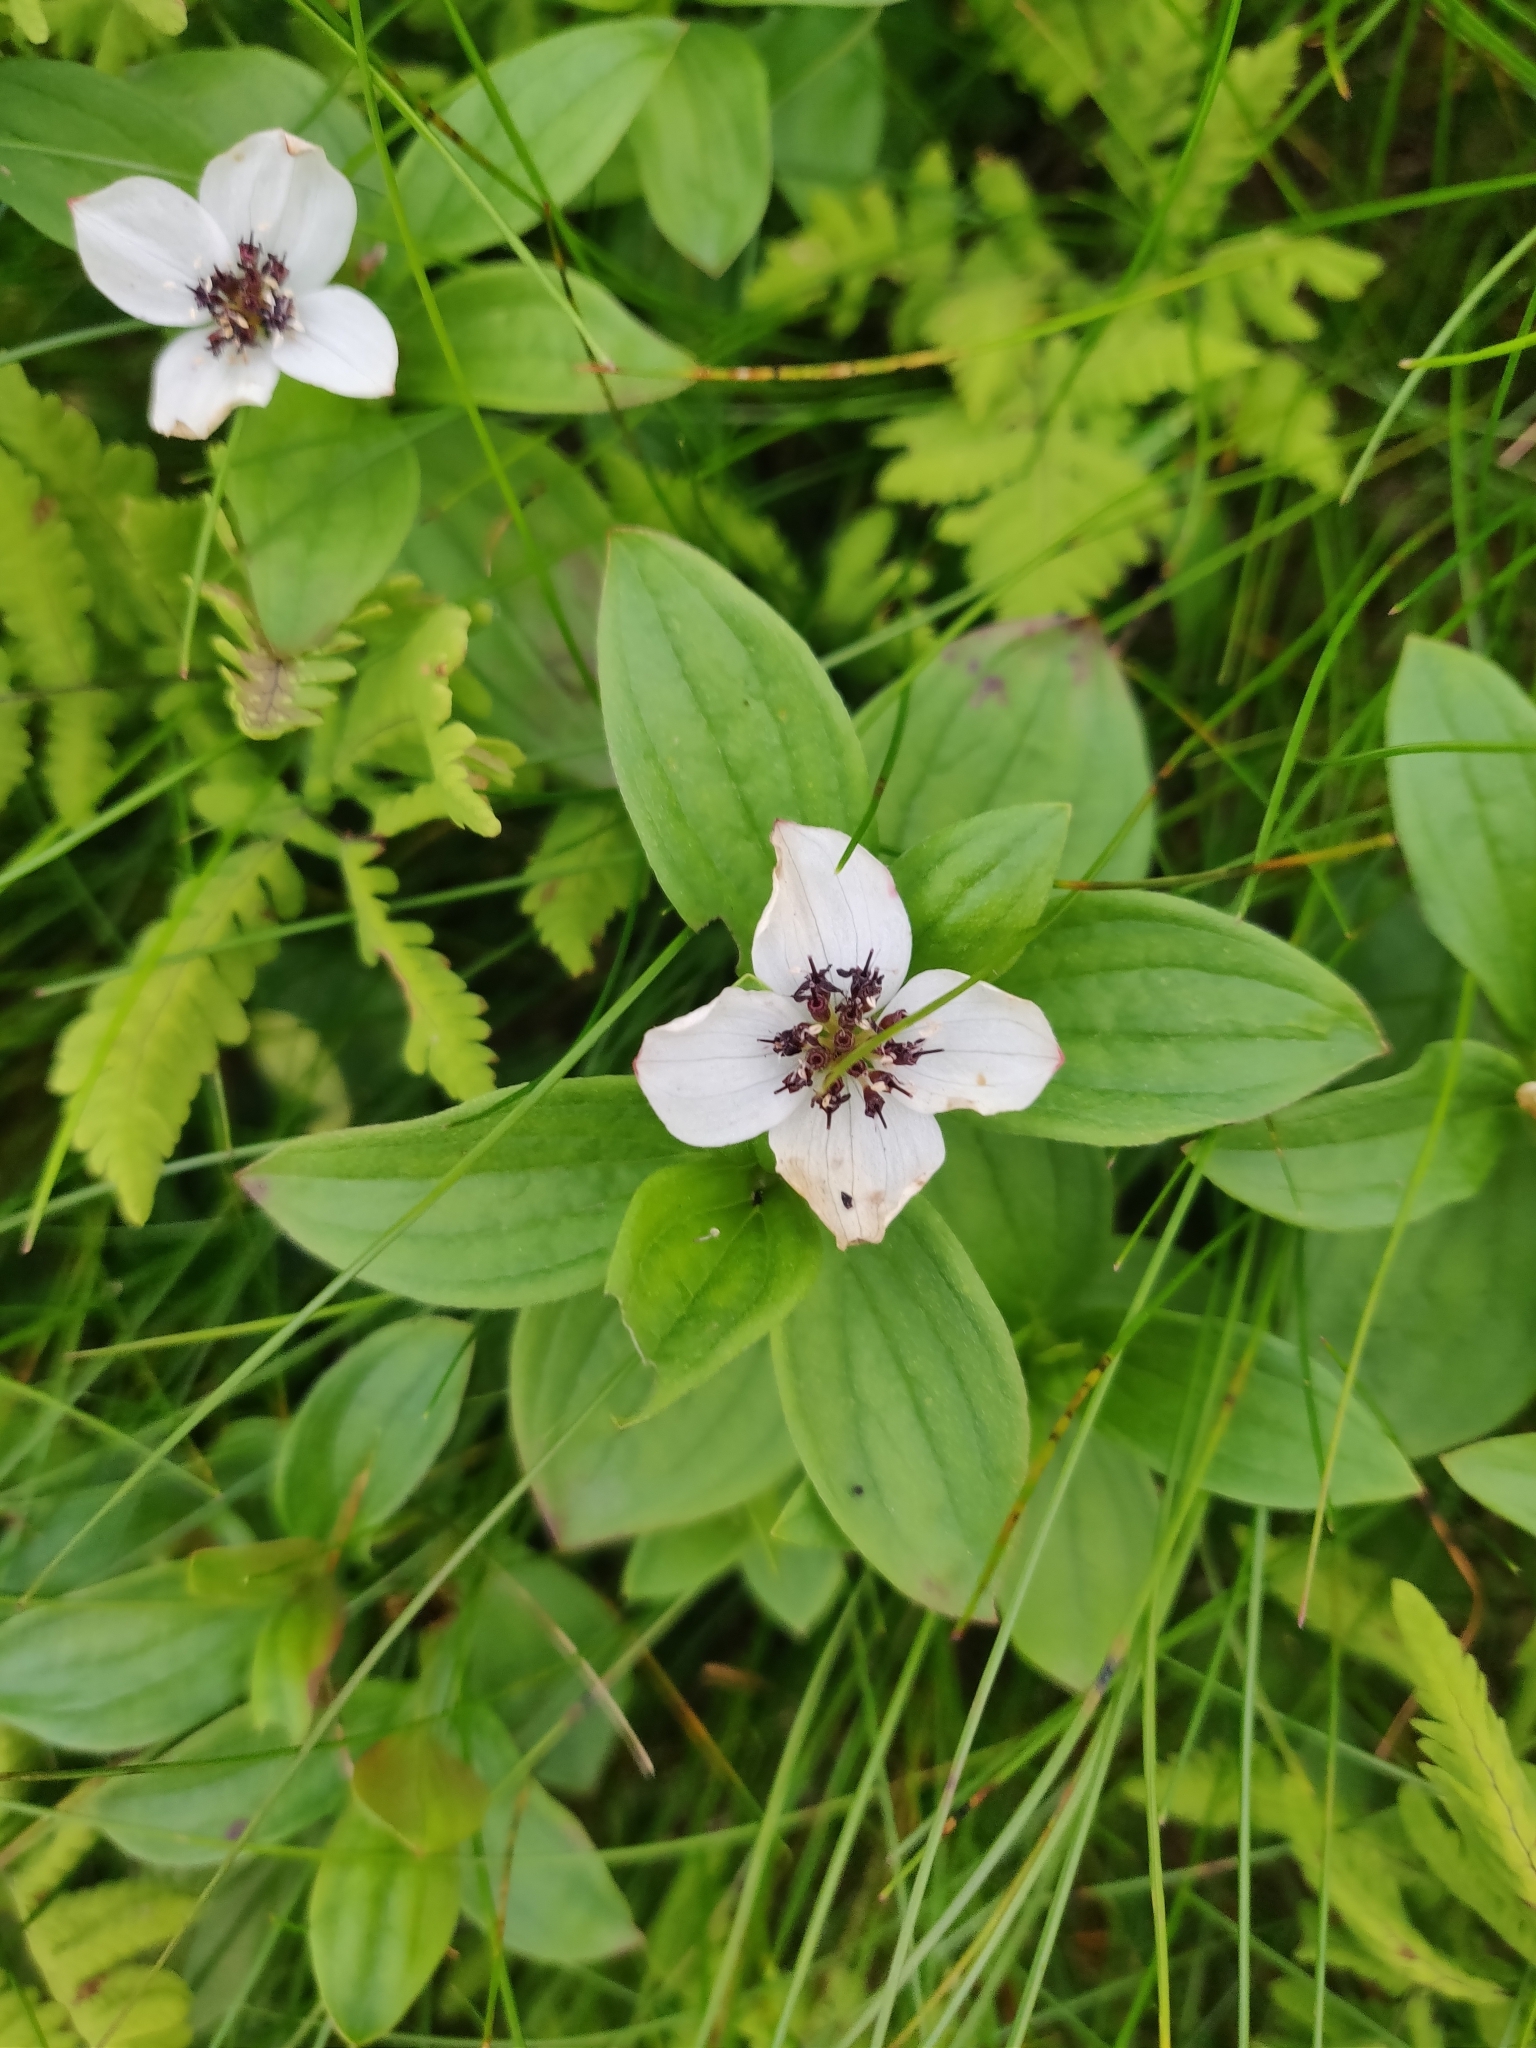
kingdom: Plantae
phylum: Tracheophyta
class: Magnoliopsida
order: Cornales
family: Cornaceae
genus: Cornus
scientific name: Cornus suecica
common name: Dwarf cornel
